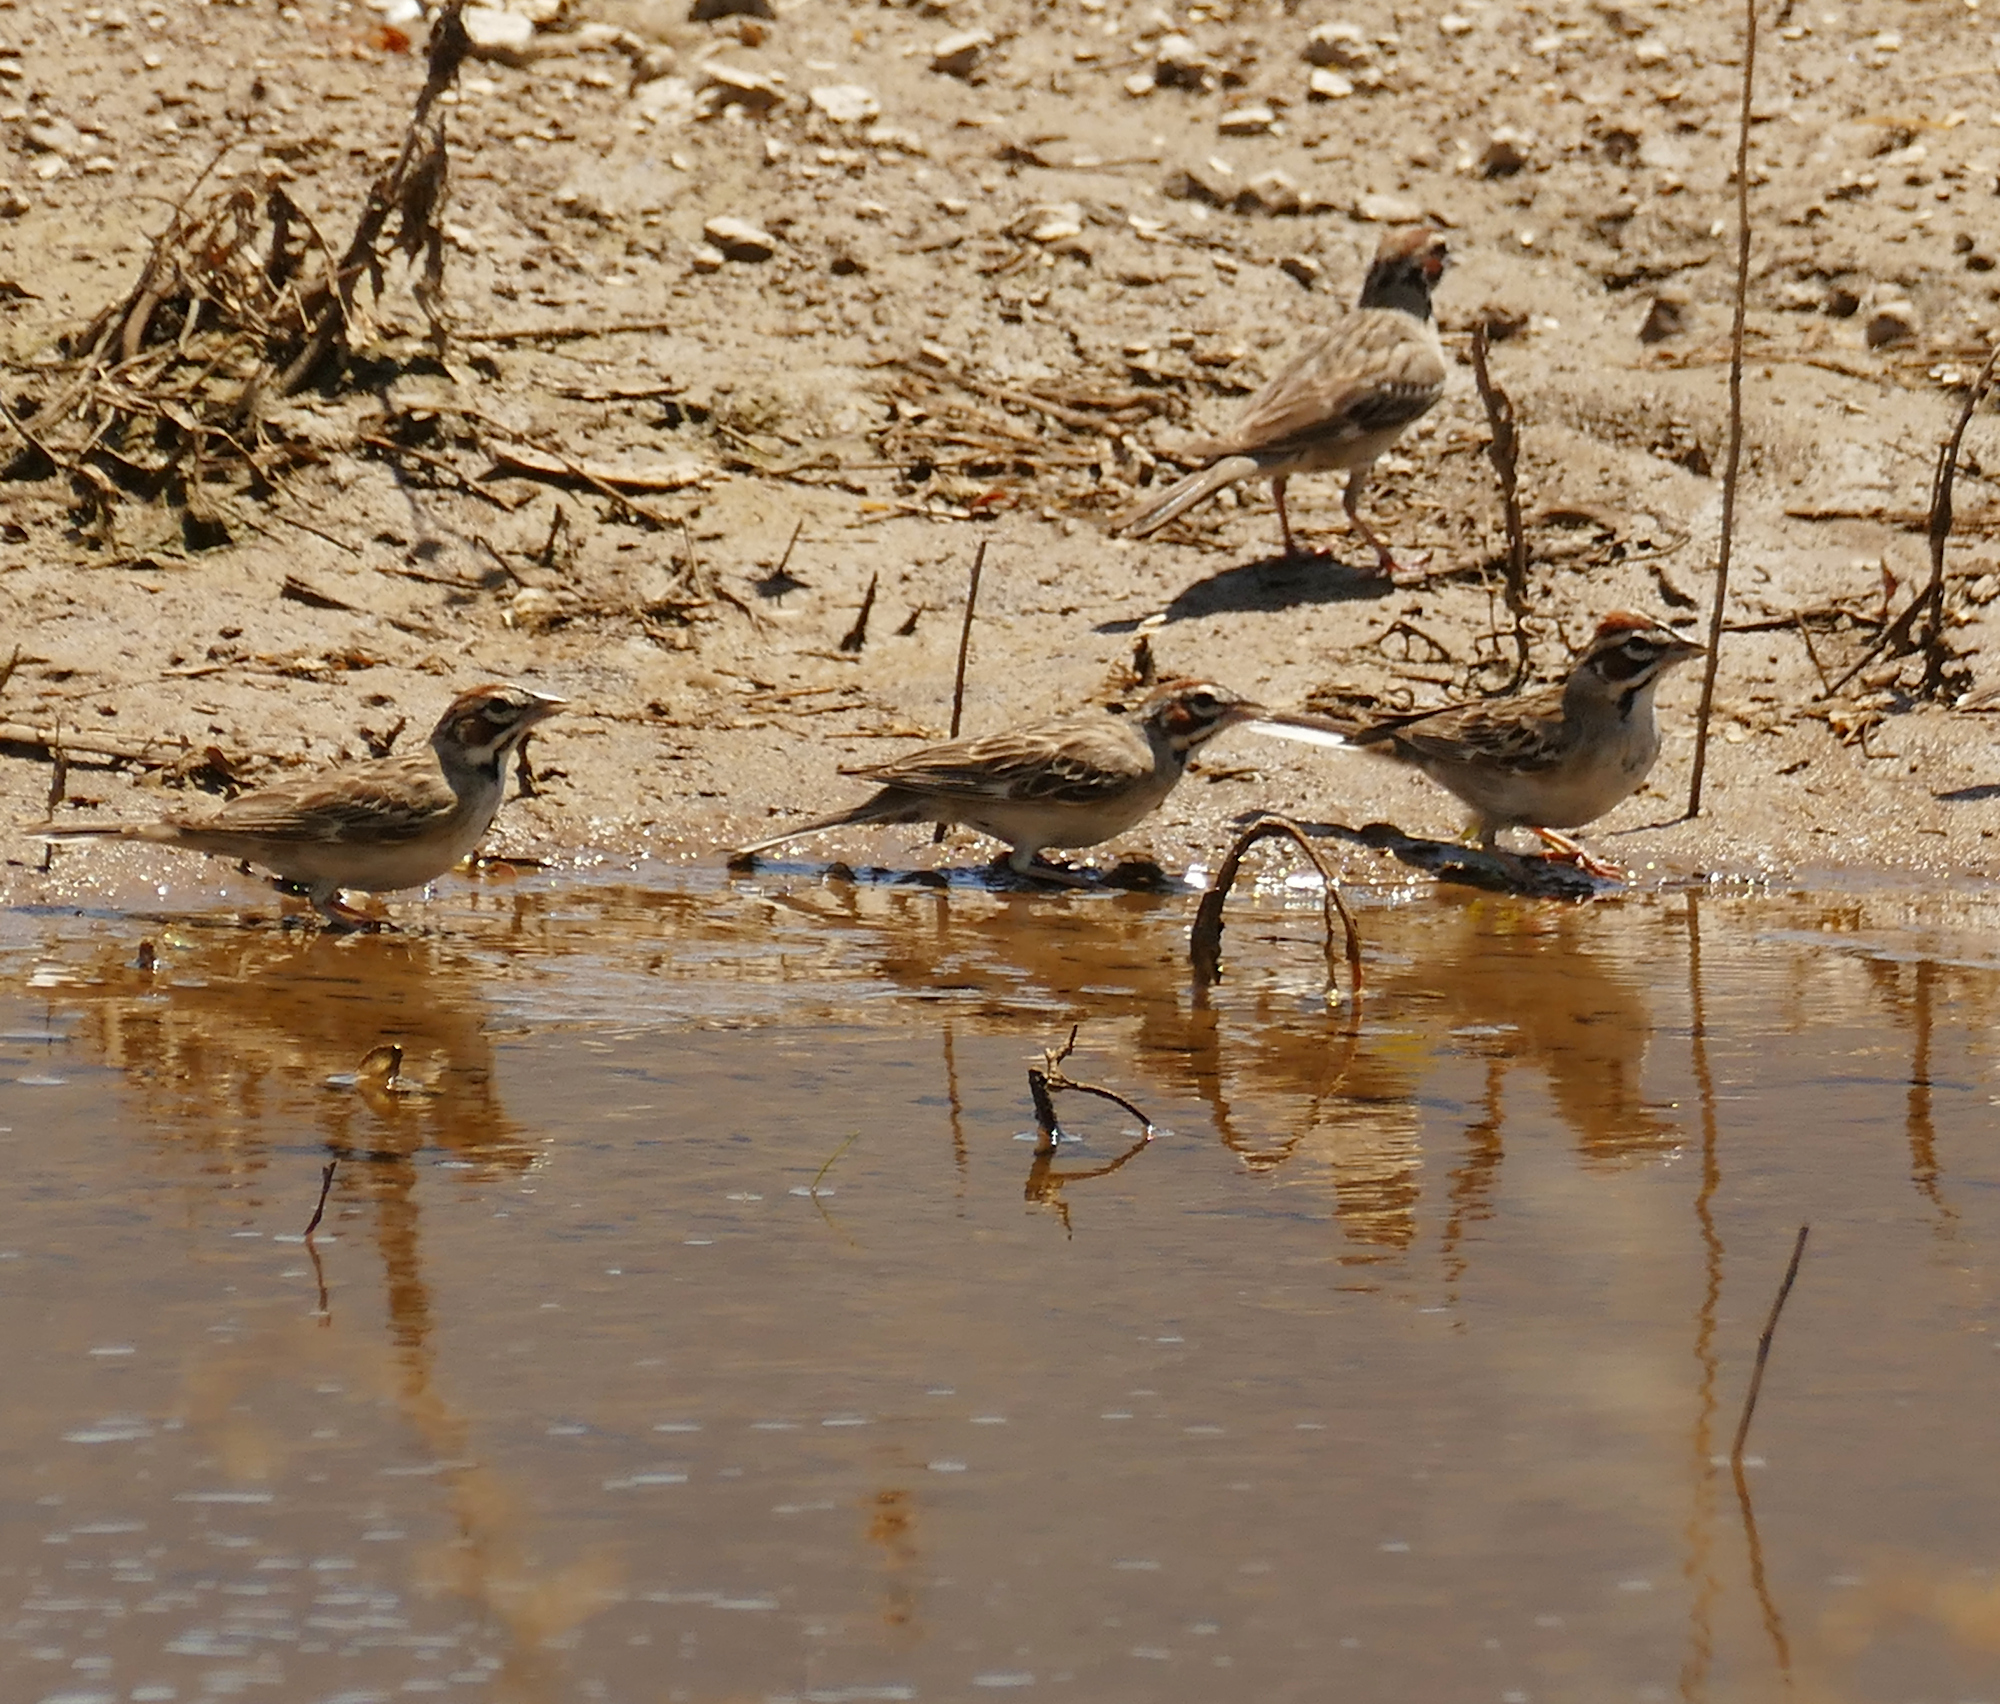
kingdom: Animalia
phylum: Chordata
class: Aves
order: Passeriformes
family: Passerellidae
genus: Chondestes
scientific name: Chondestes grammacus
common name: Lark sparrow
